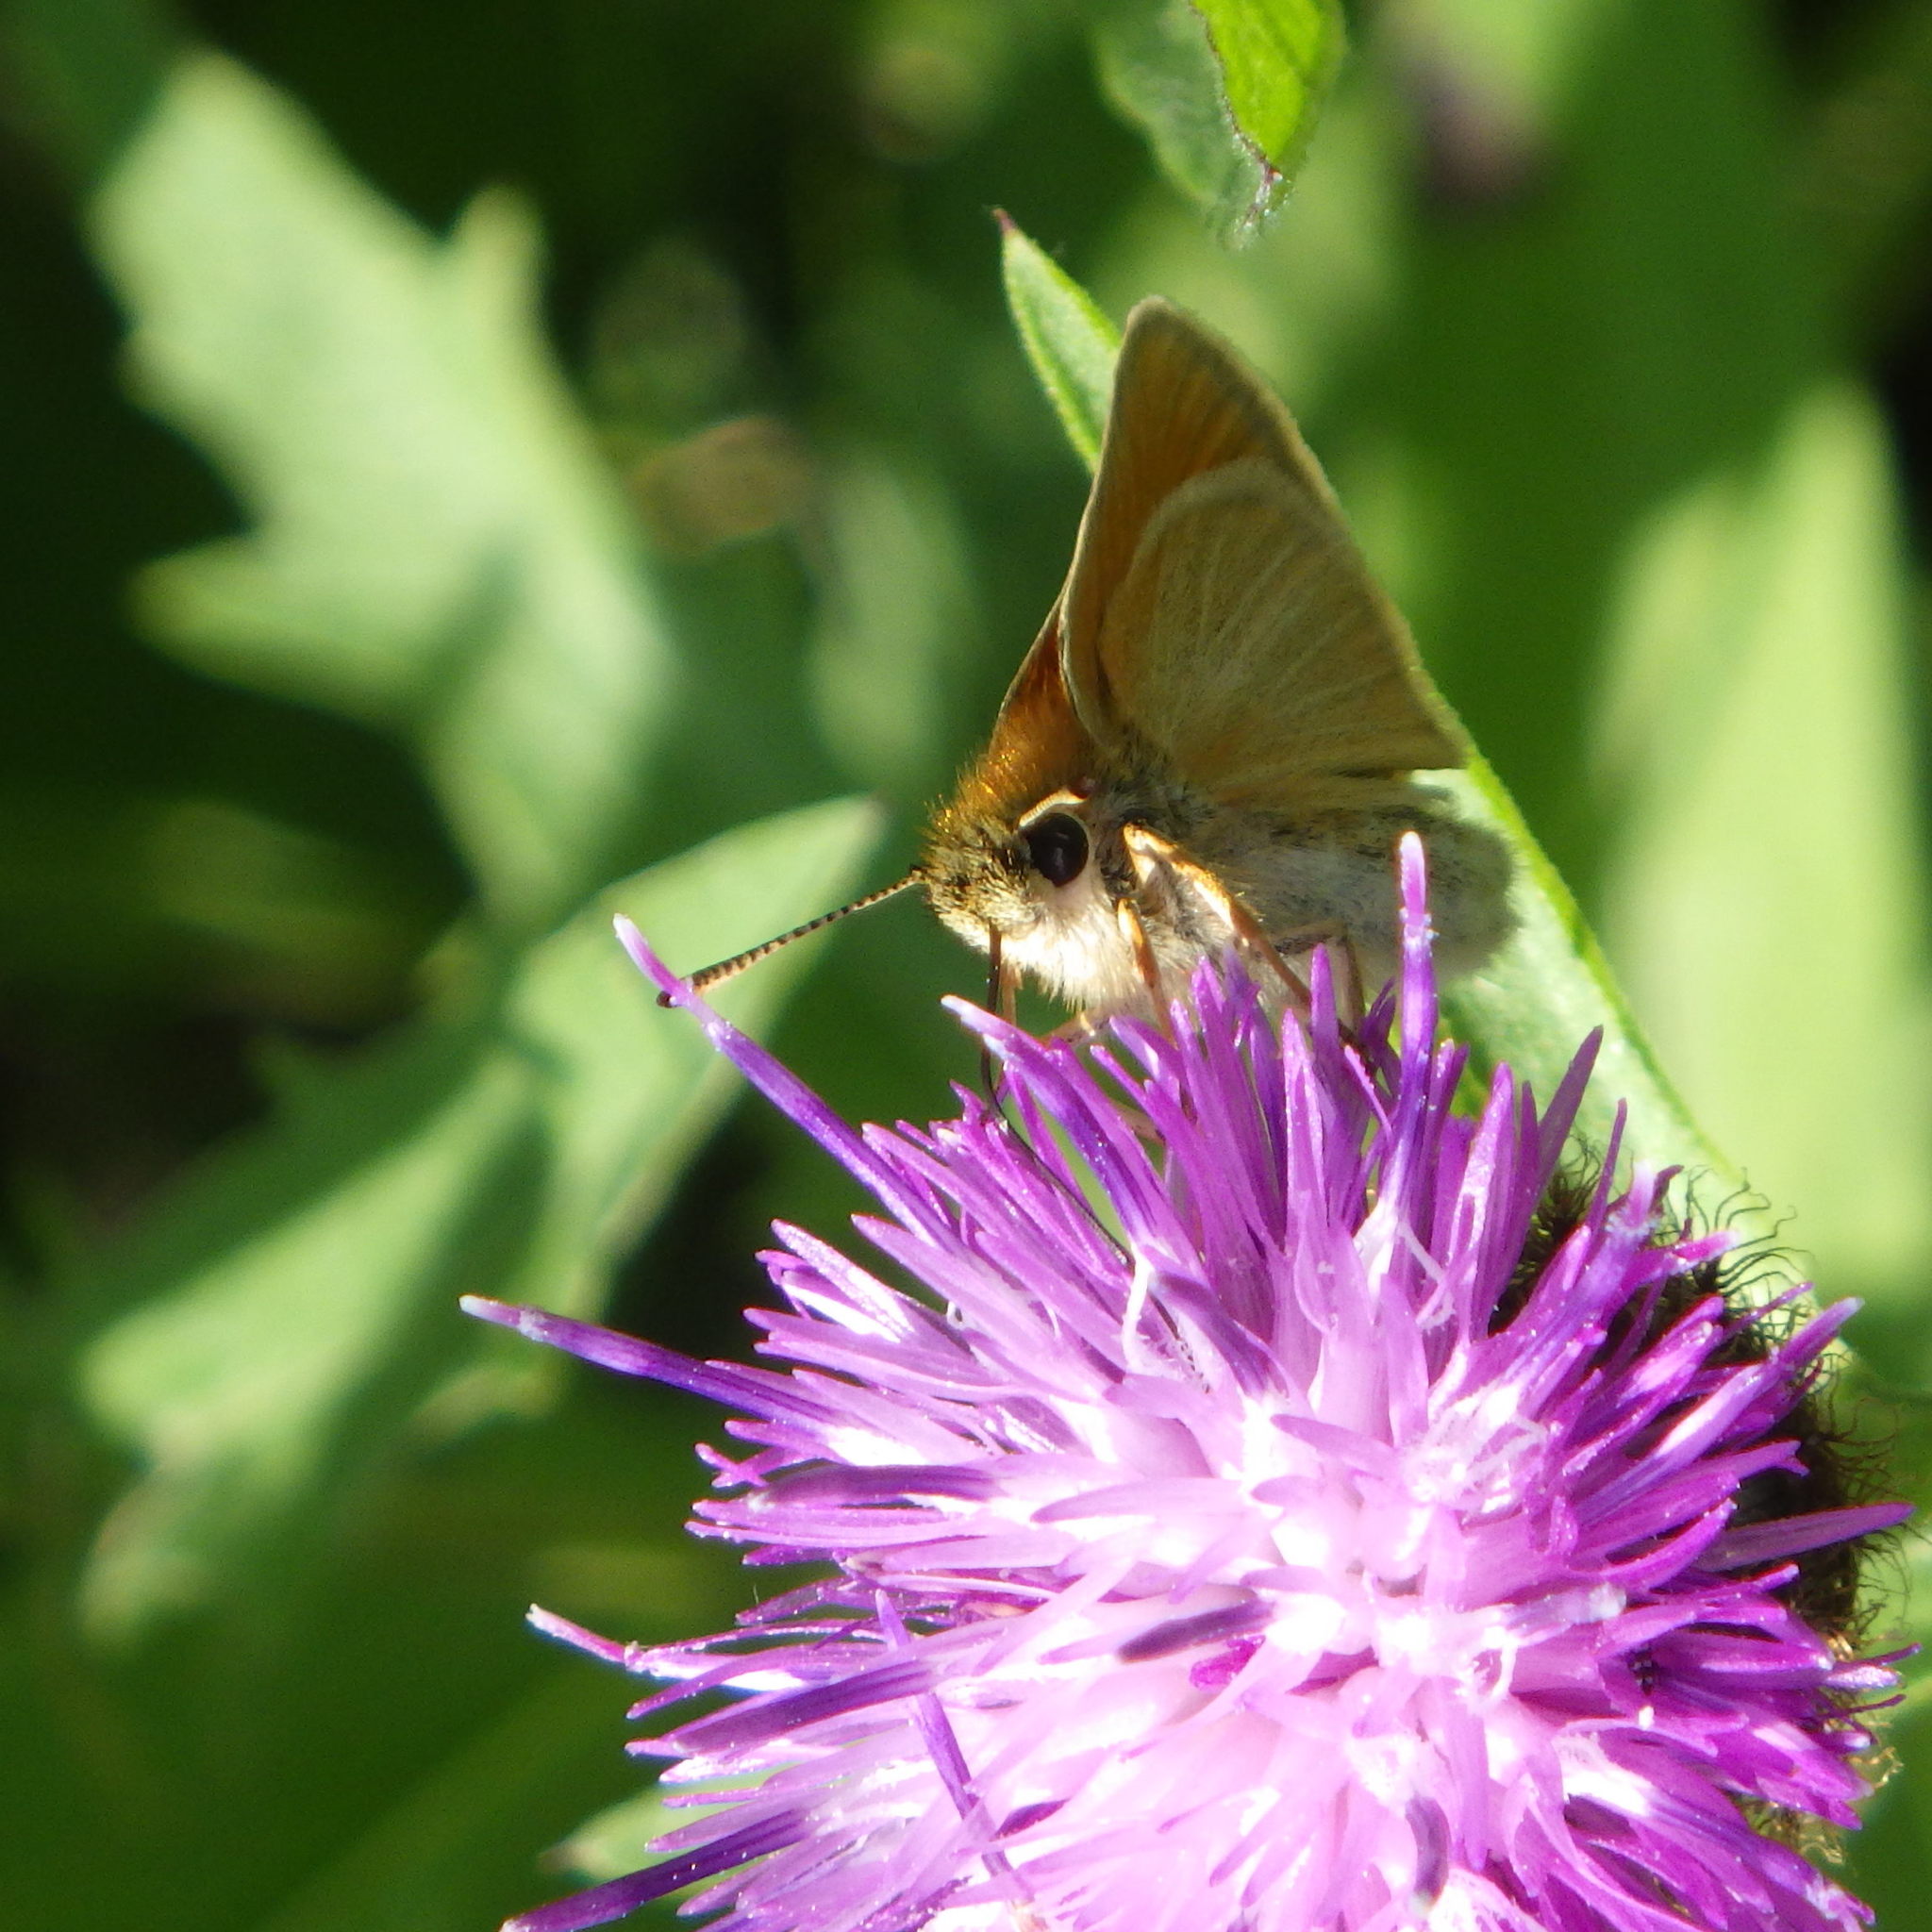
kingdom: Animalia
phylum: Arthropoda
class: Insecta
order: Lepidoptera
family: Hesperiidae
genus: Thymelicus
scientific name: Thymelicus lineola
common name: Essex skipper
